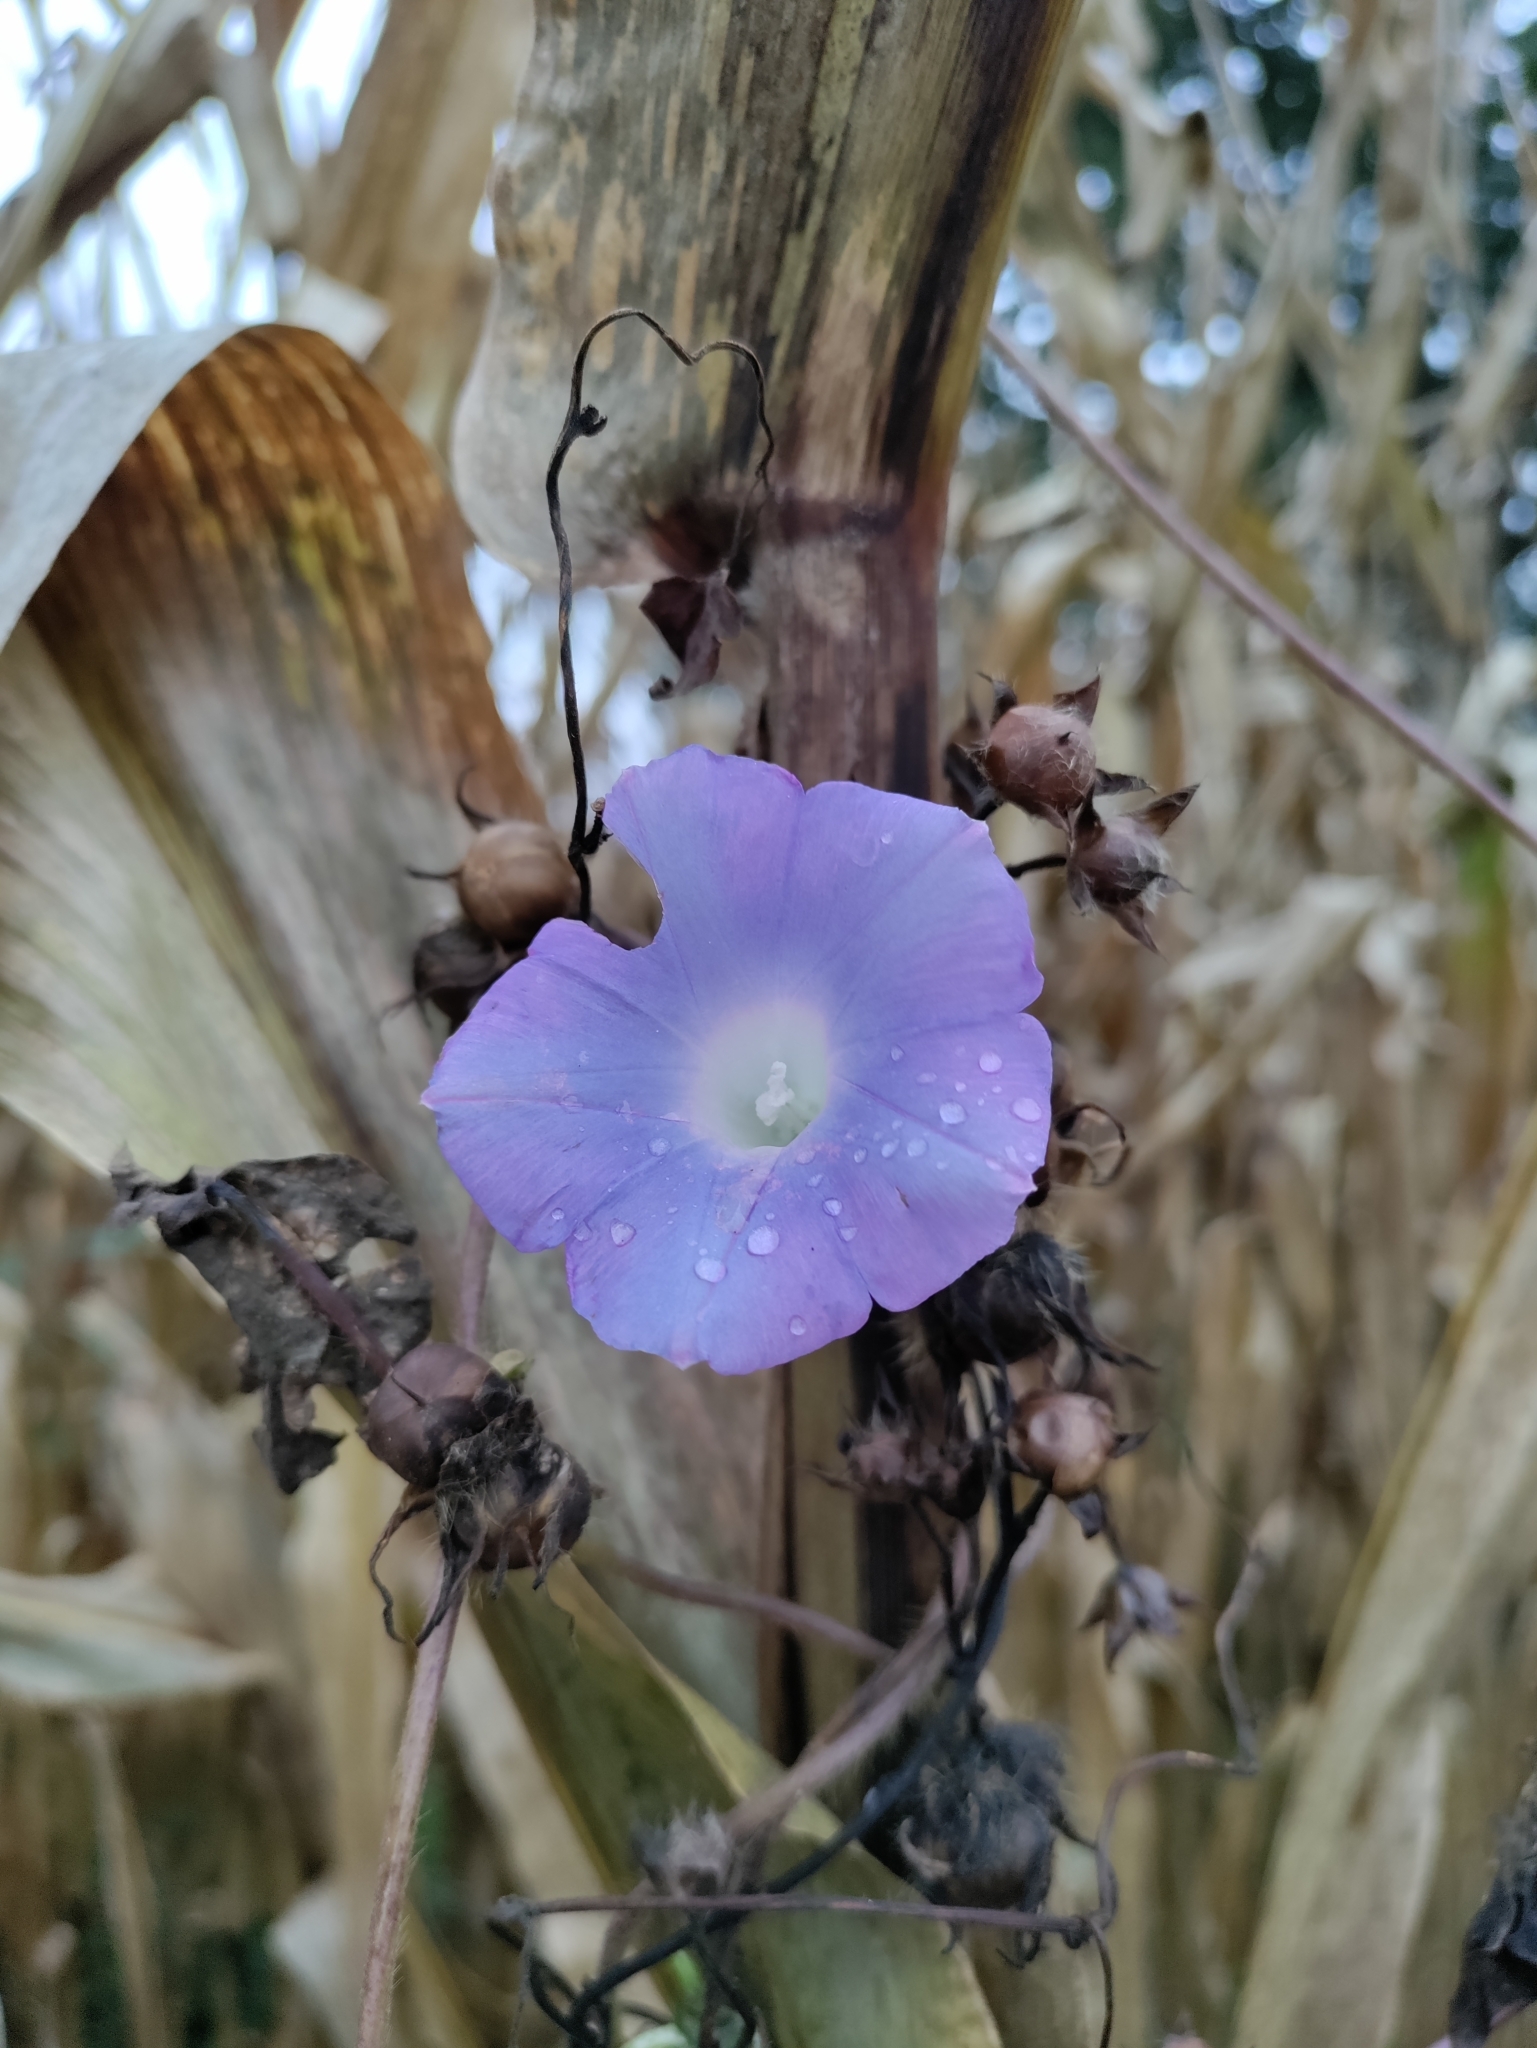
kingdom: Plantae
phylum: Tracheophyta
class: Magnoliopsida
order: Solanales
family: Convolvulaceae
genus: Ipomoea
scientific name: Ipomoea hederacea
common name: Ivy-leaved morning-glory
